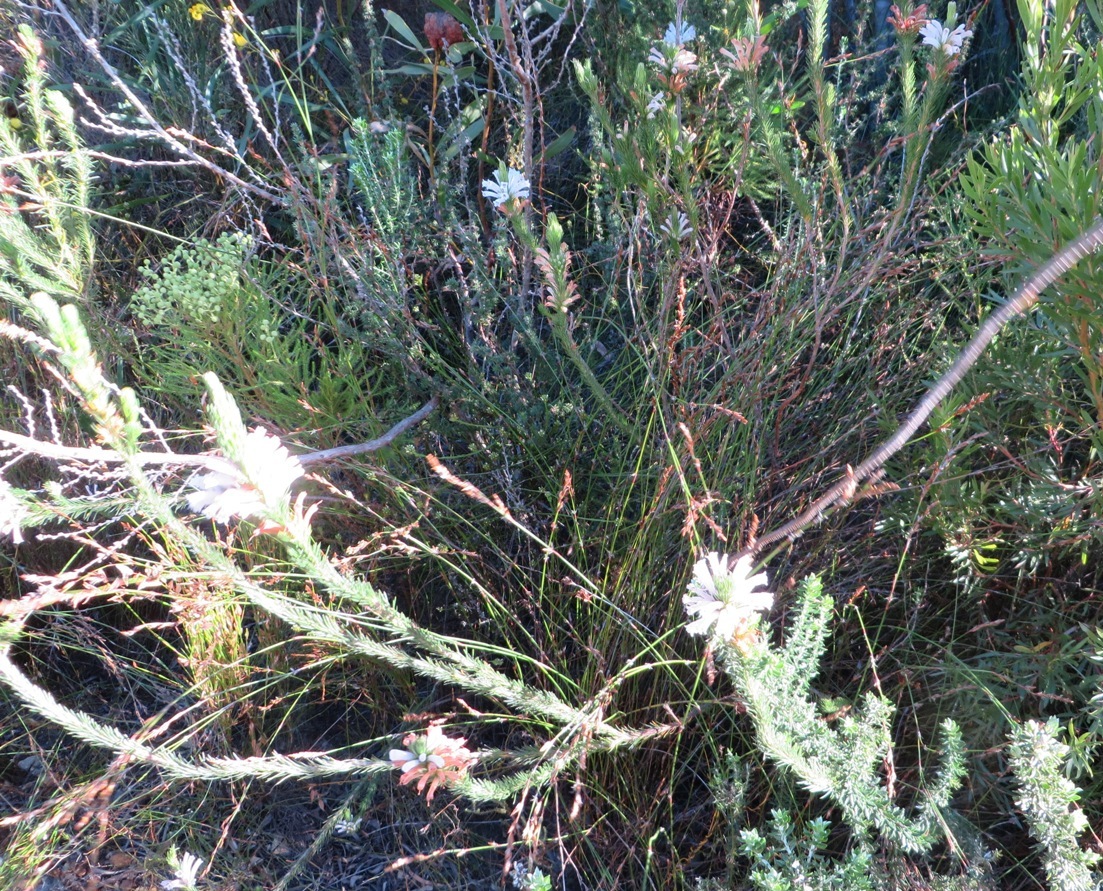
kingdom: Plantae
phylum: Tracheophyta
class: Magnoliopsida
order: Ericales
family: Ericaceae
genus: Erica
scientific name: Erica vestita
